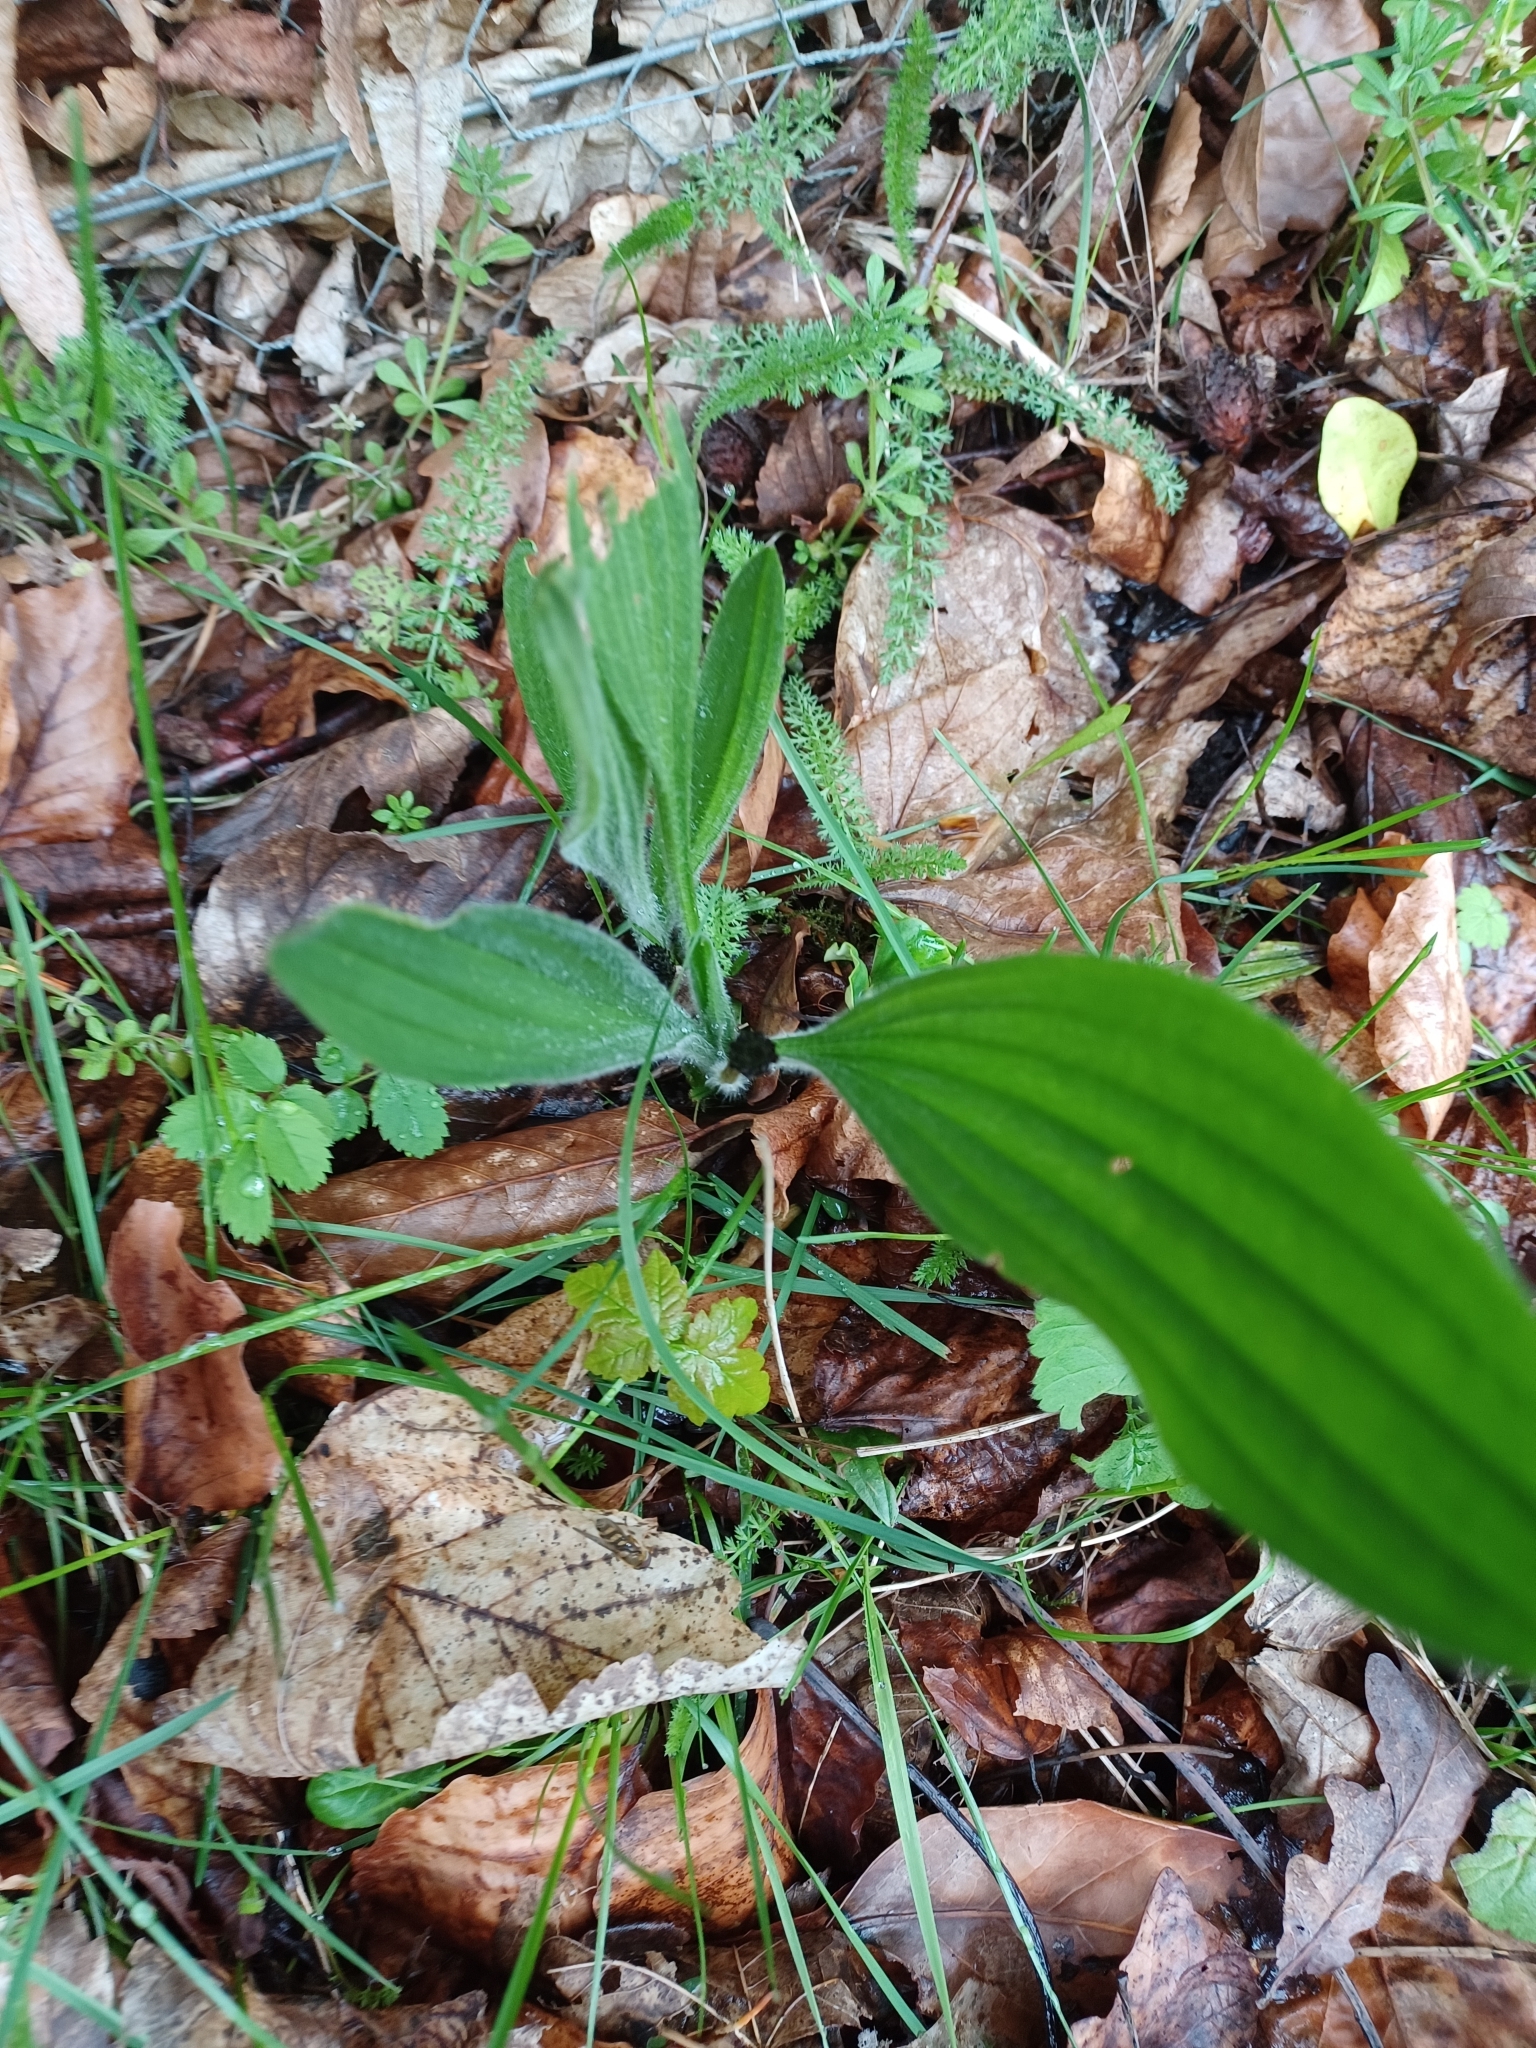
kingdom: Plantae
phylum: Tracheophyta
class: Magnoliopsida
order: Lamiales
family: Plantaginaceae
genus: Plantago
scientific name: Plantago lanceolata
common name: Ribwort plantain
